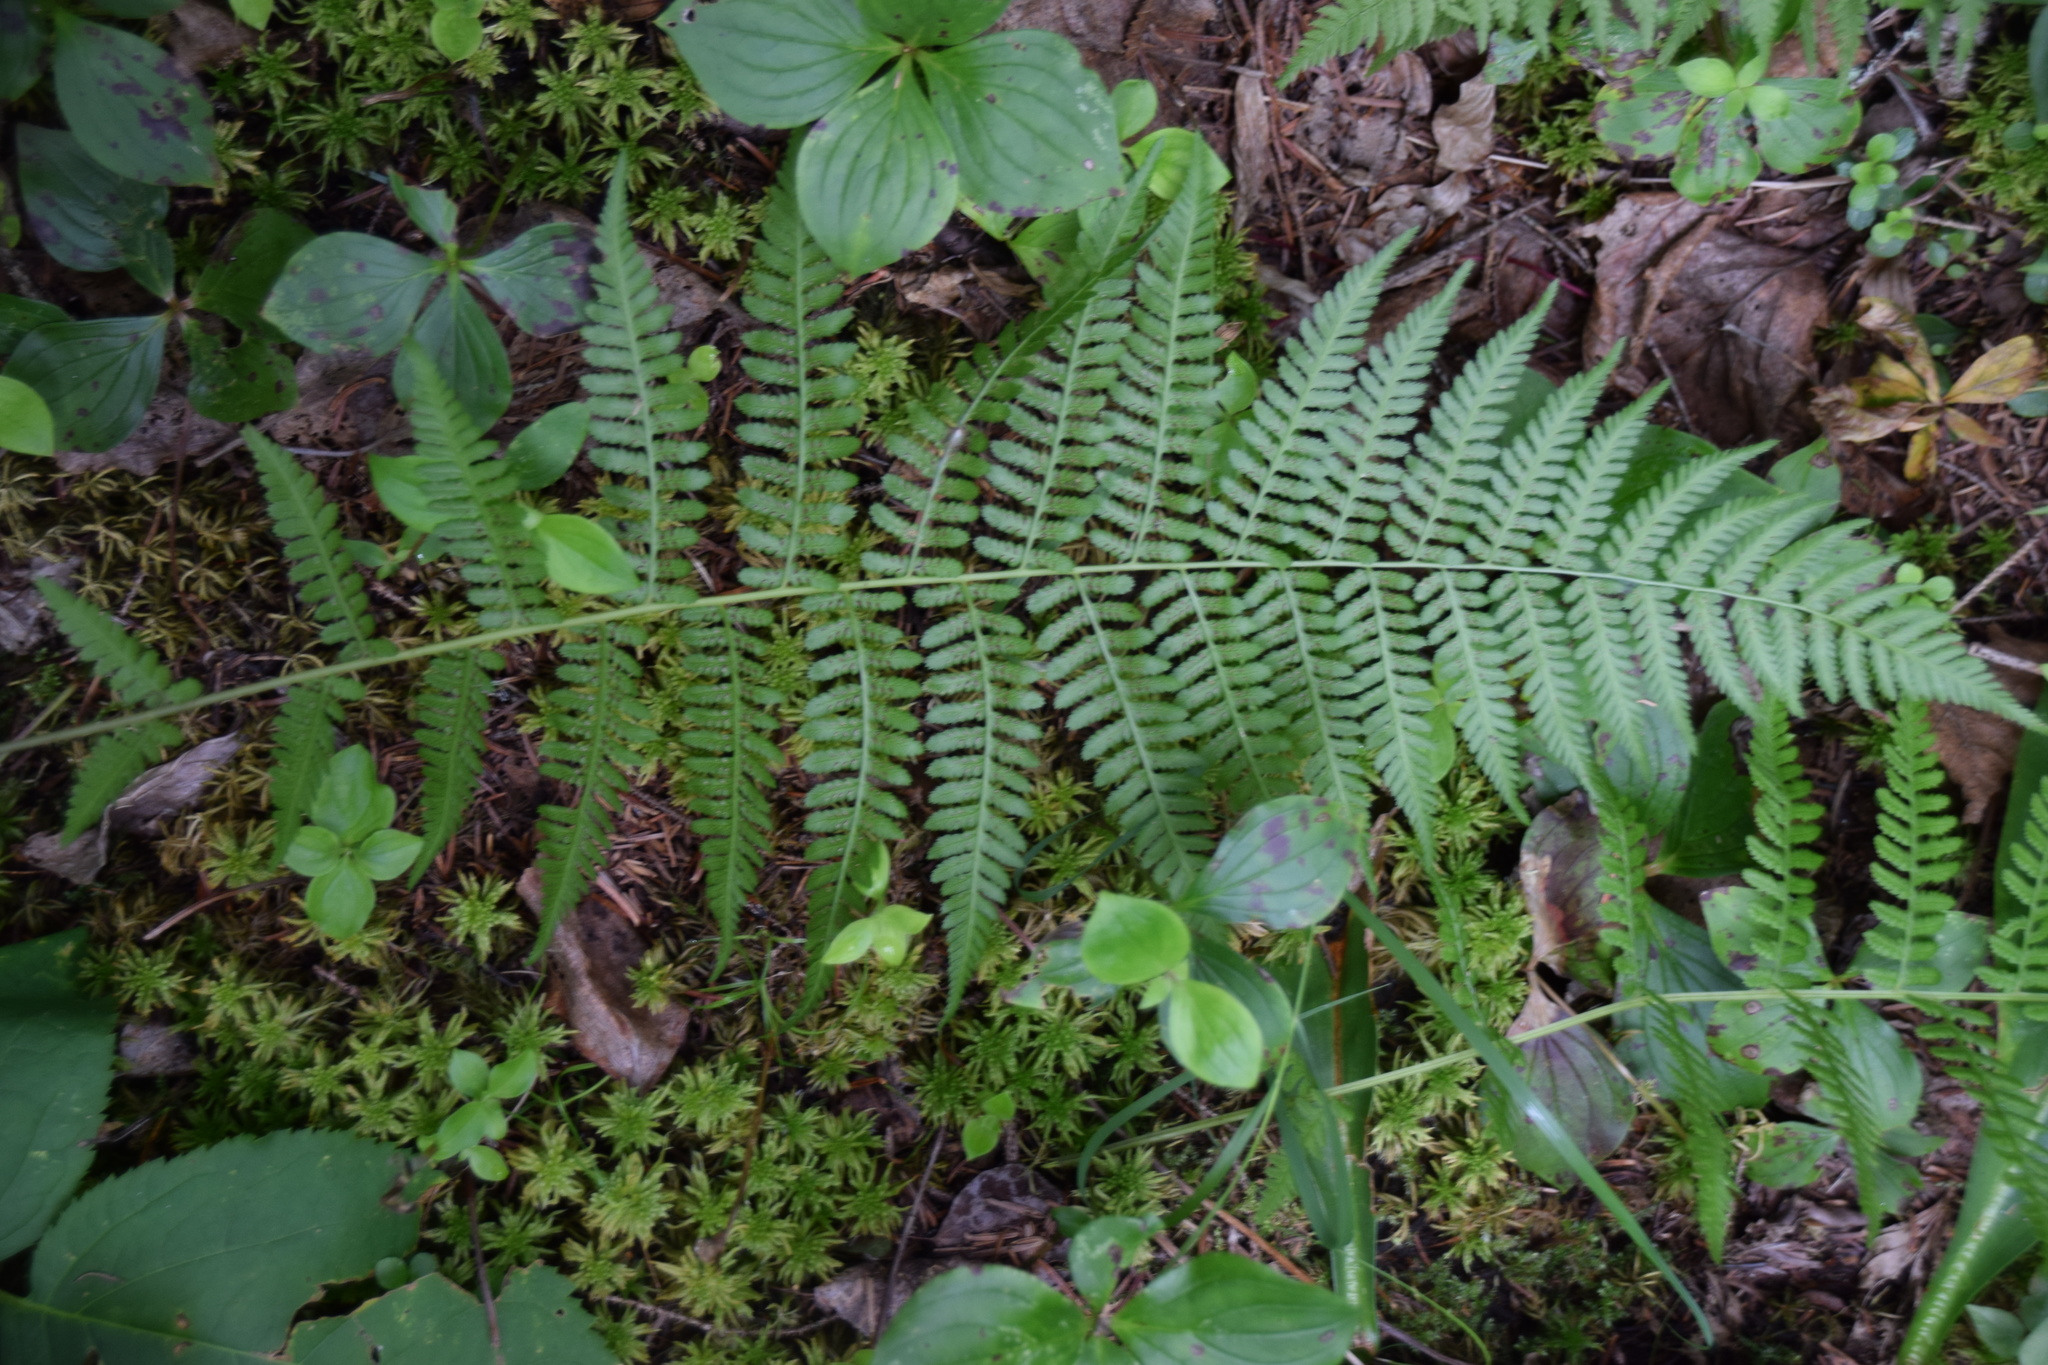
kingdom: Plantae
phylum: Tracheophyta
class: Polypodiopsida
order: Polypodiales
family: Athyriaceae
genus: Athyrium
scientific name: Athyrium angustum
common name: Northern lady fern
